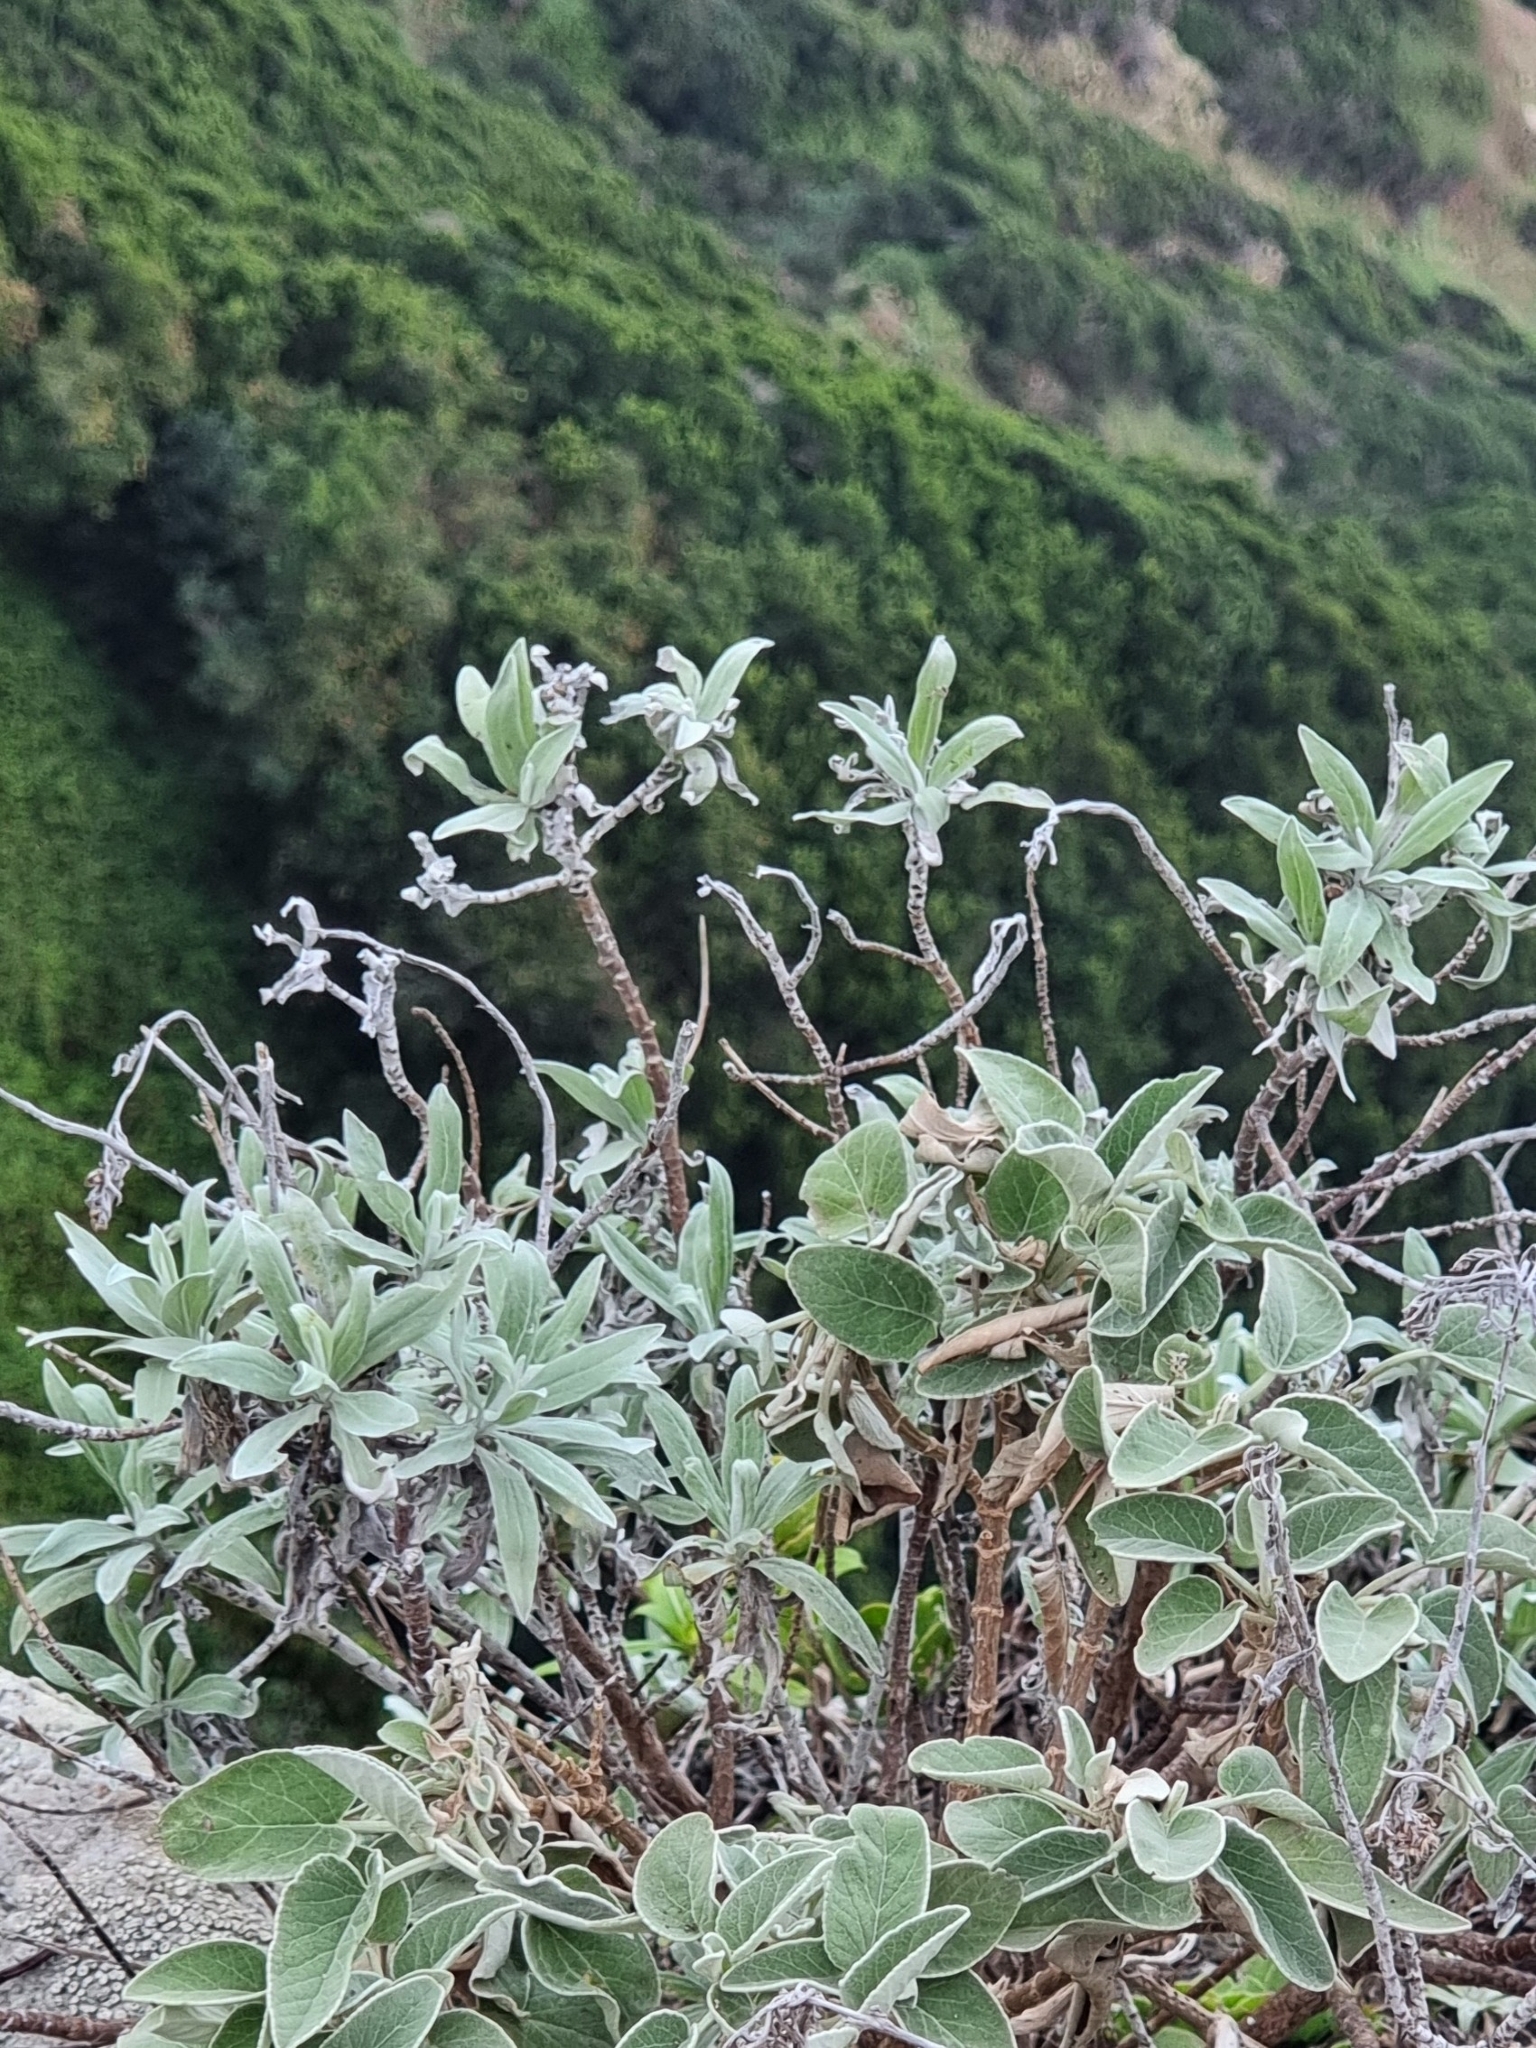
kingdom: Plantae
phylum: Tracheophyta
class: Magnoliopsida
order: Asterales
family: Asteraceae
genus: Helichrysum
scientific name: Helichrysum melaleucum
